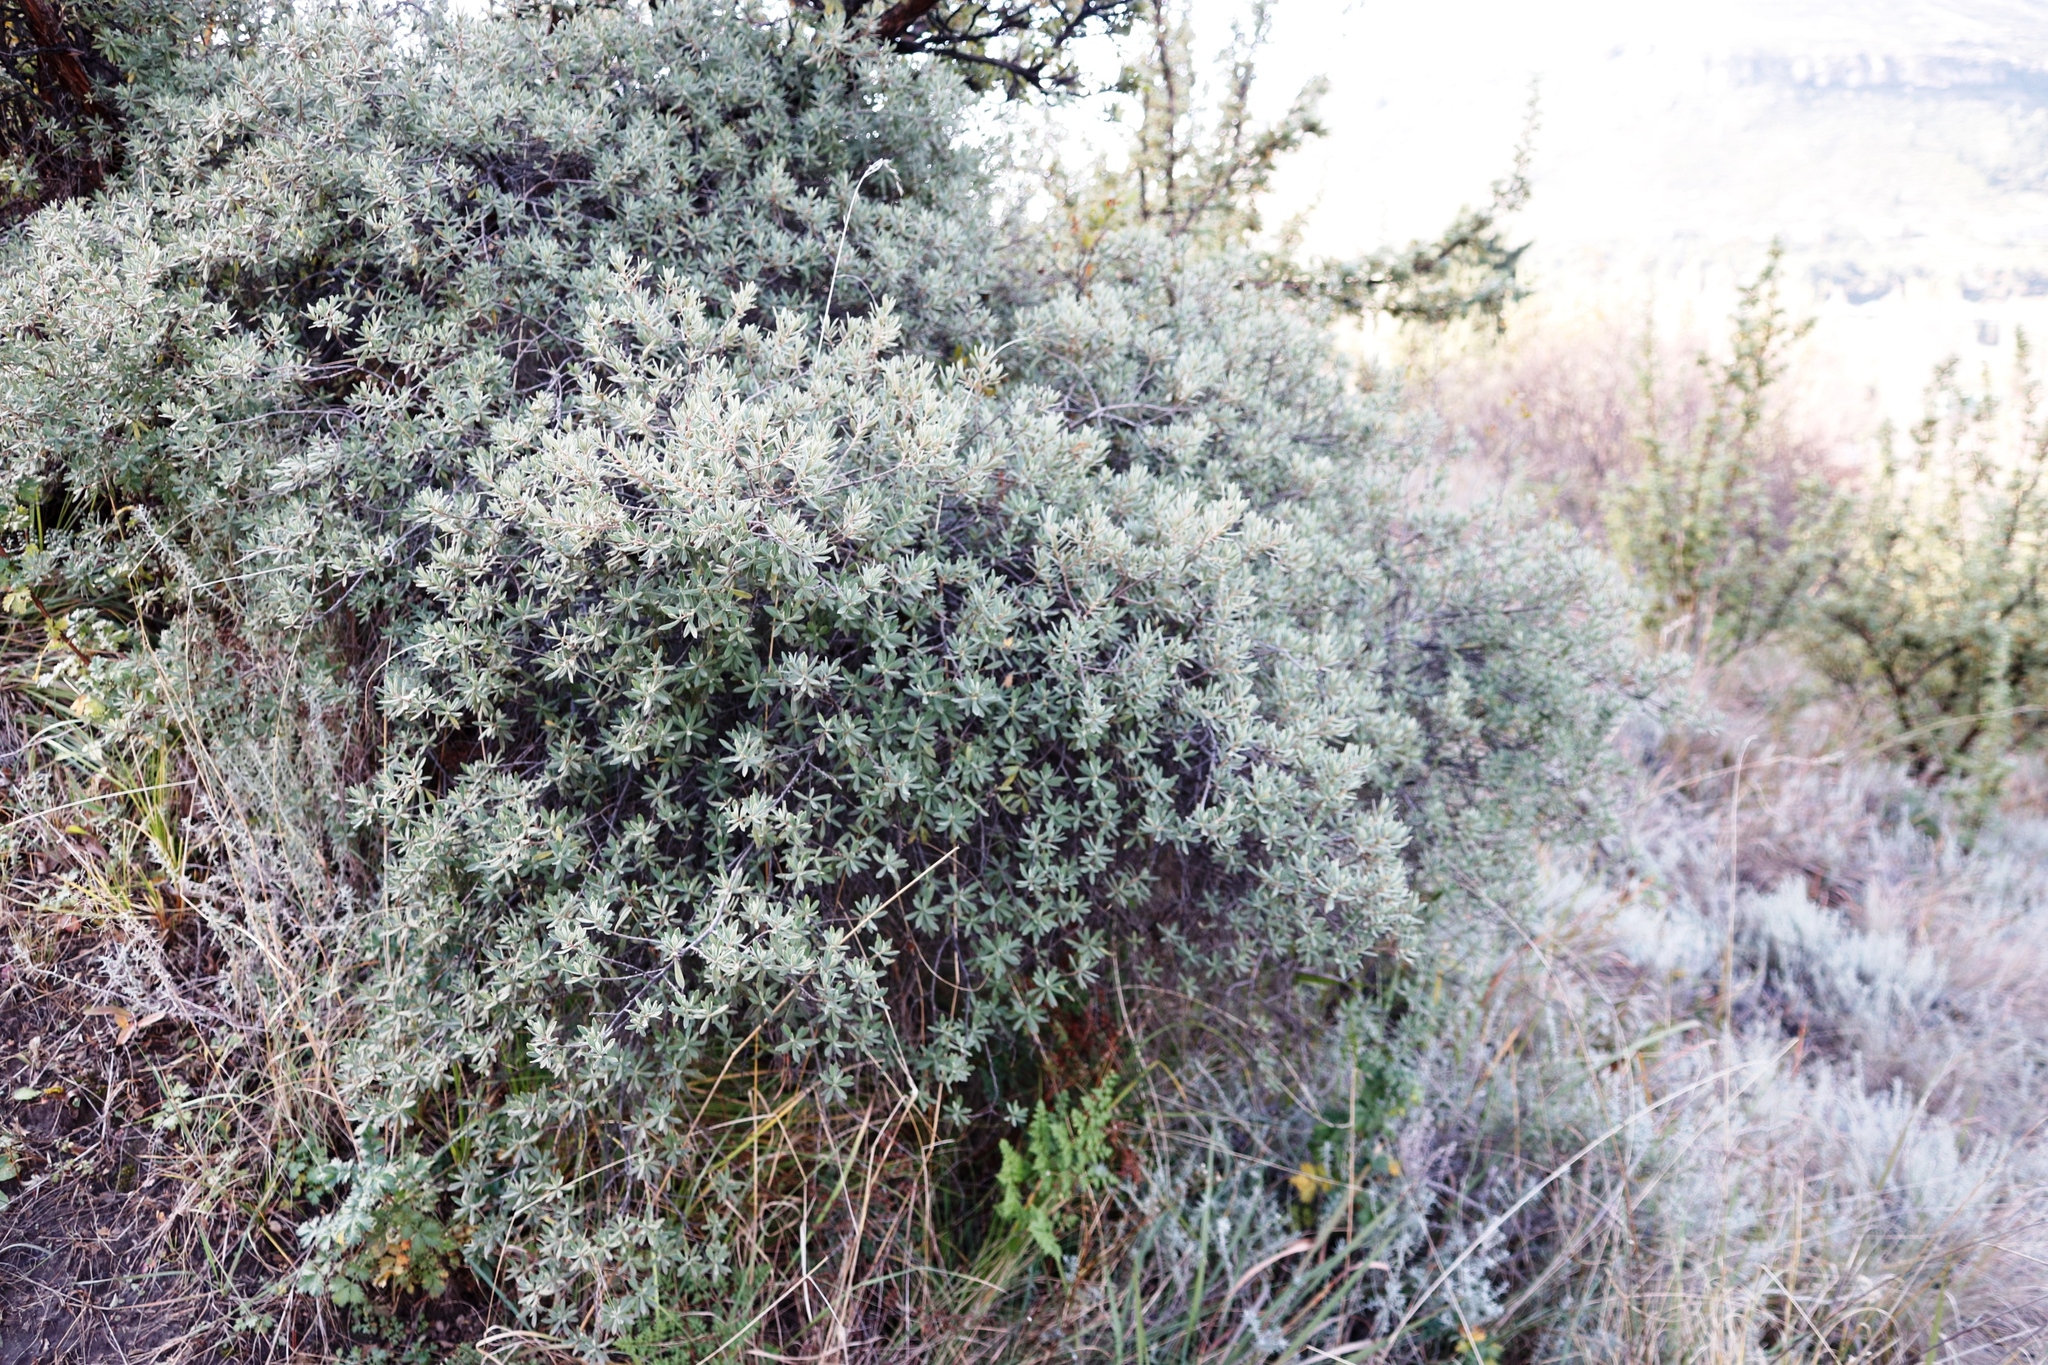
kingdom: Plantae
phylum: Tracheophyta
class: Magnoliopsida
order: Ericales
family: Ebenaceae
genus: Diospyros
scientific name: Diospyros pubescens
